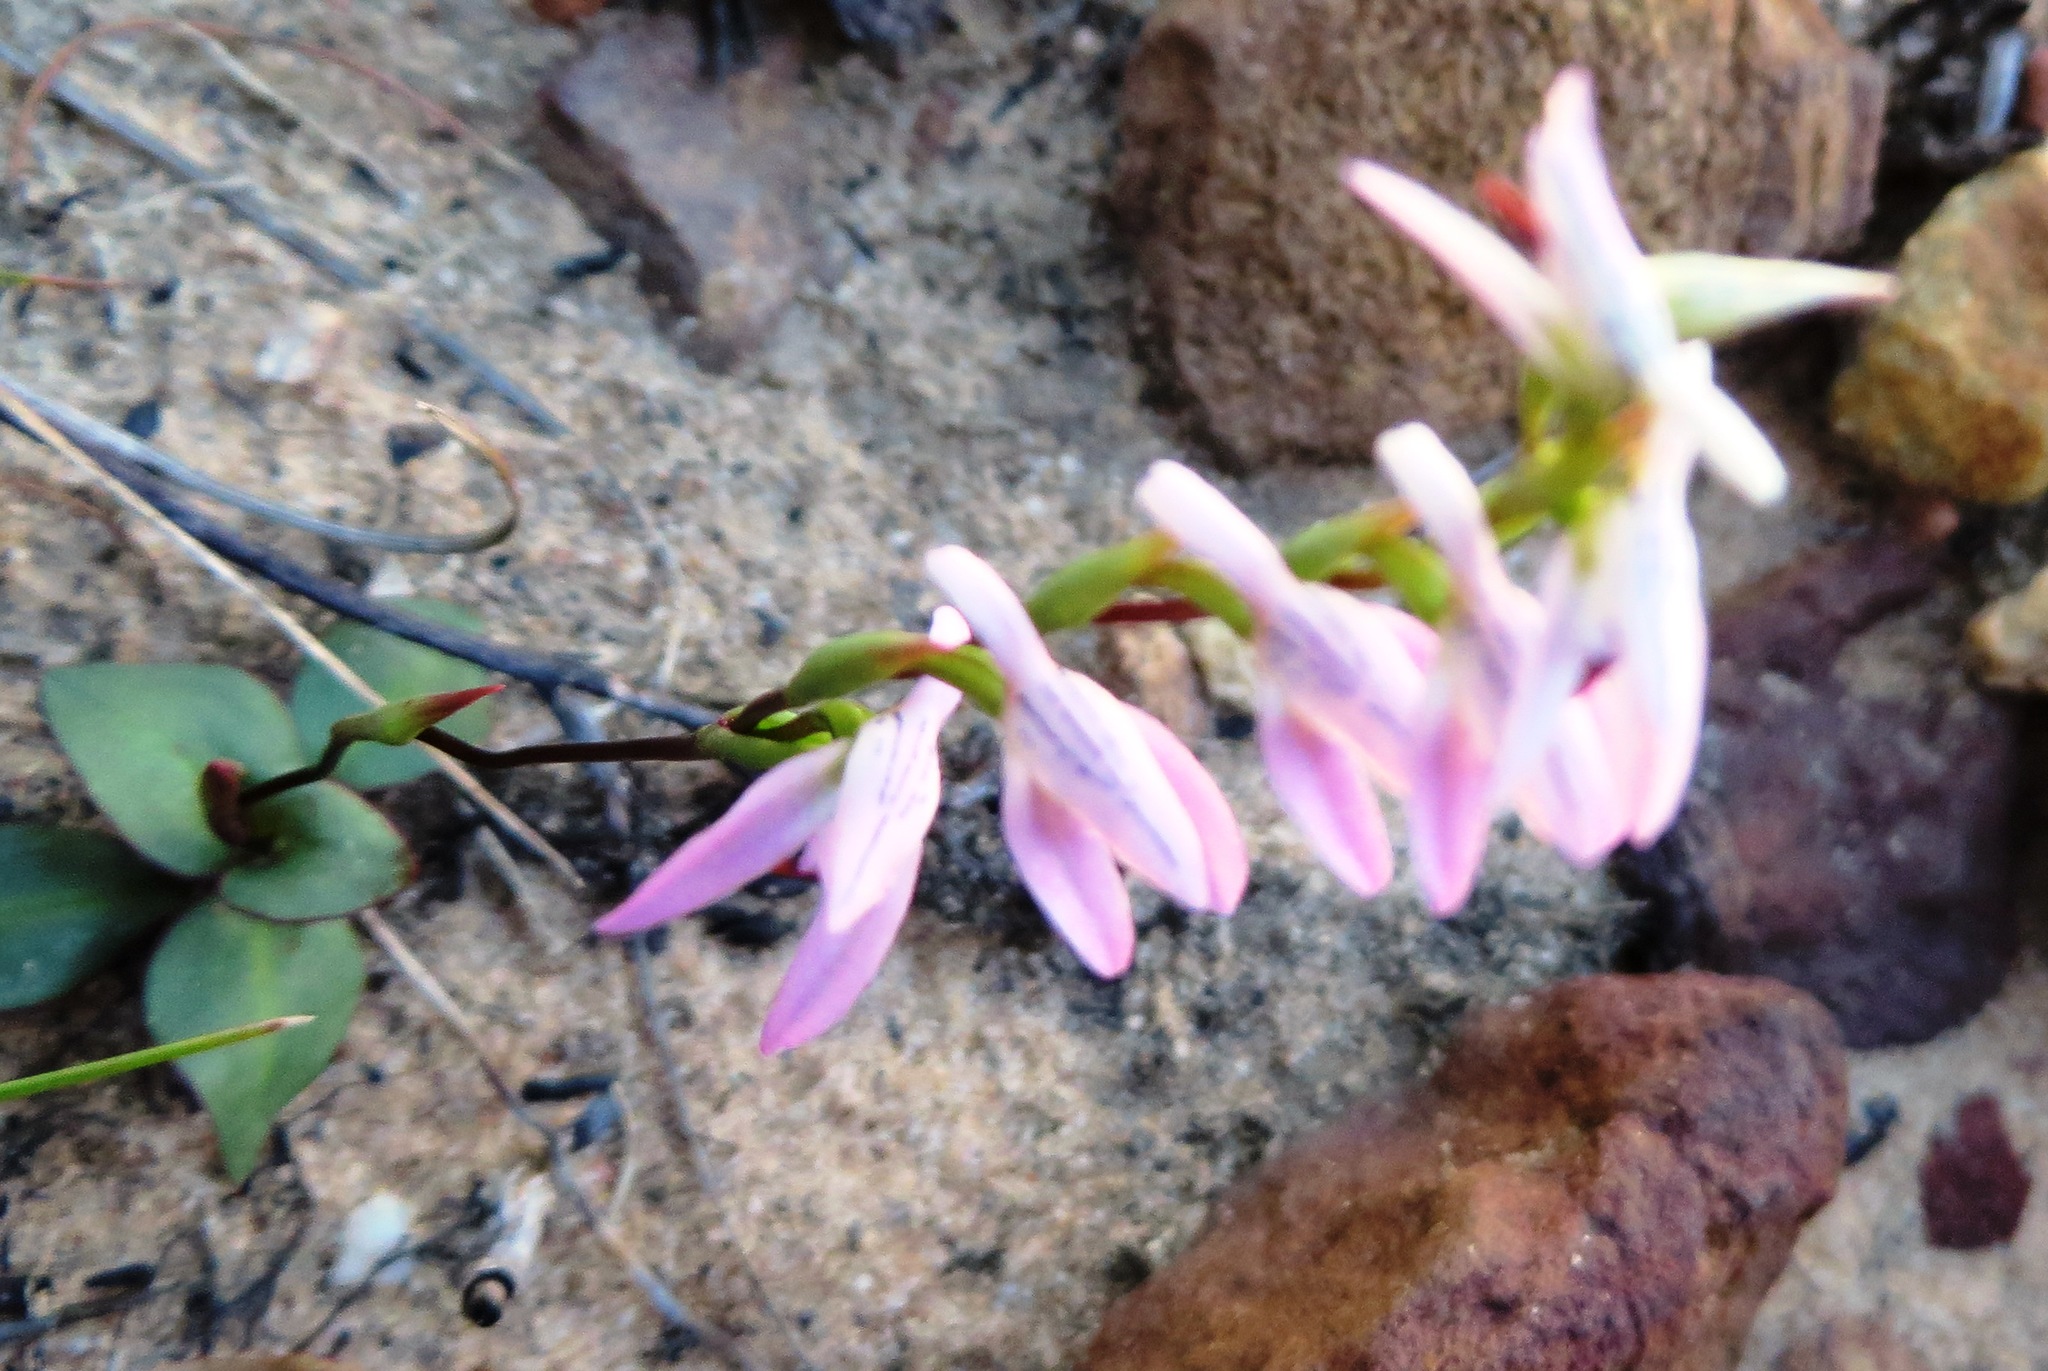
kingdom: Plantae
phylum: Tracheophyta
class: Liliopsida
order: Asparagales
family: Orchidaceae
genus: Disa
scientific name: Disa obliqua
